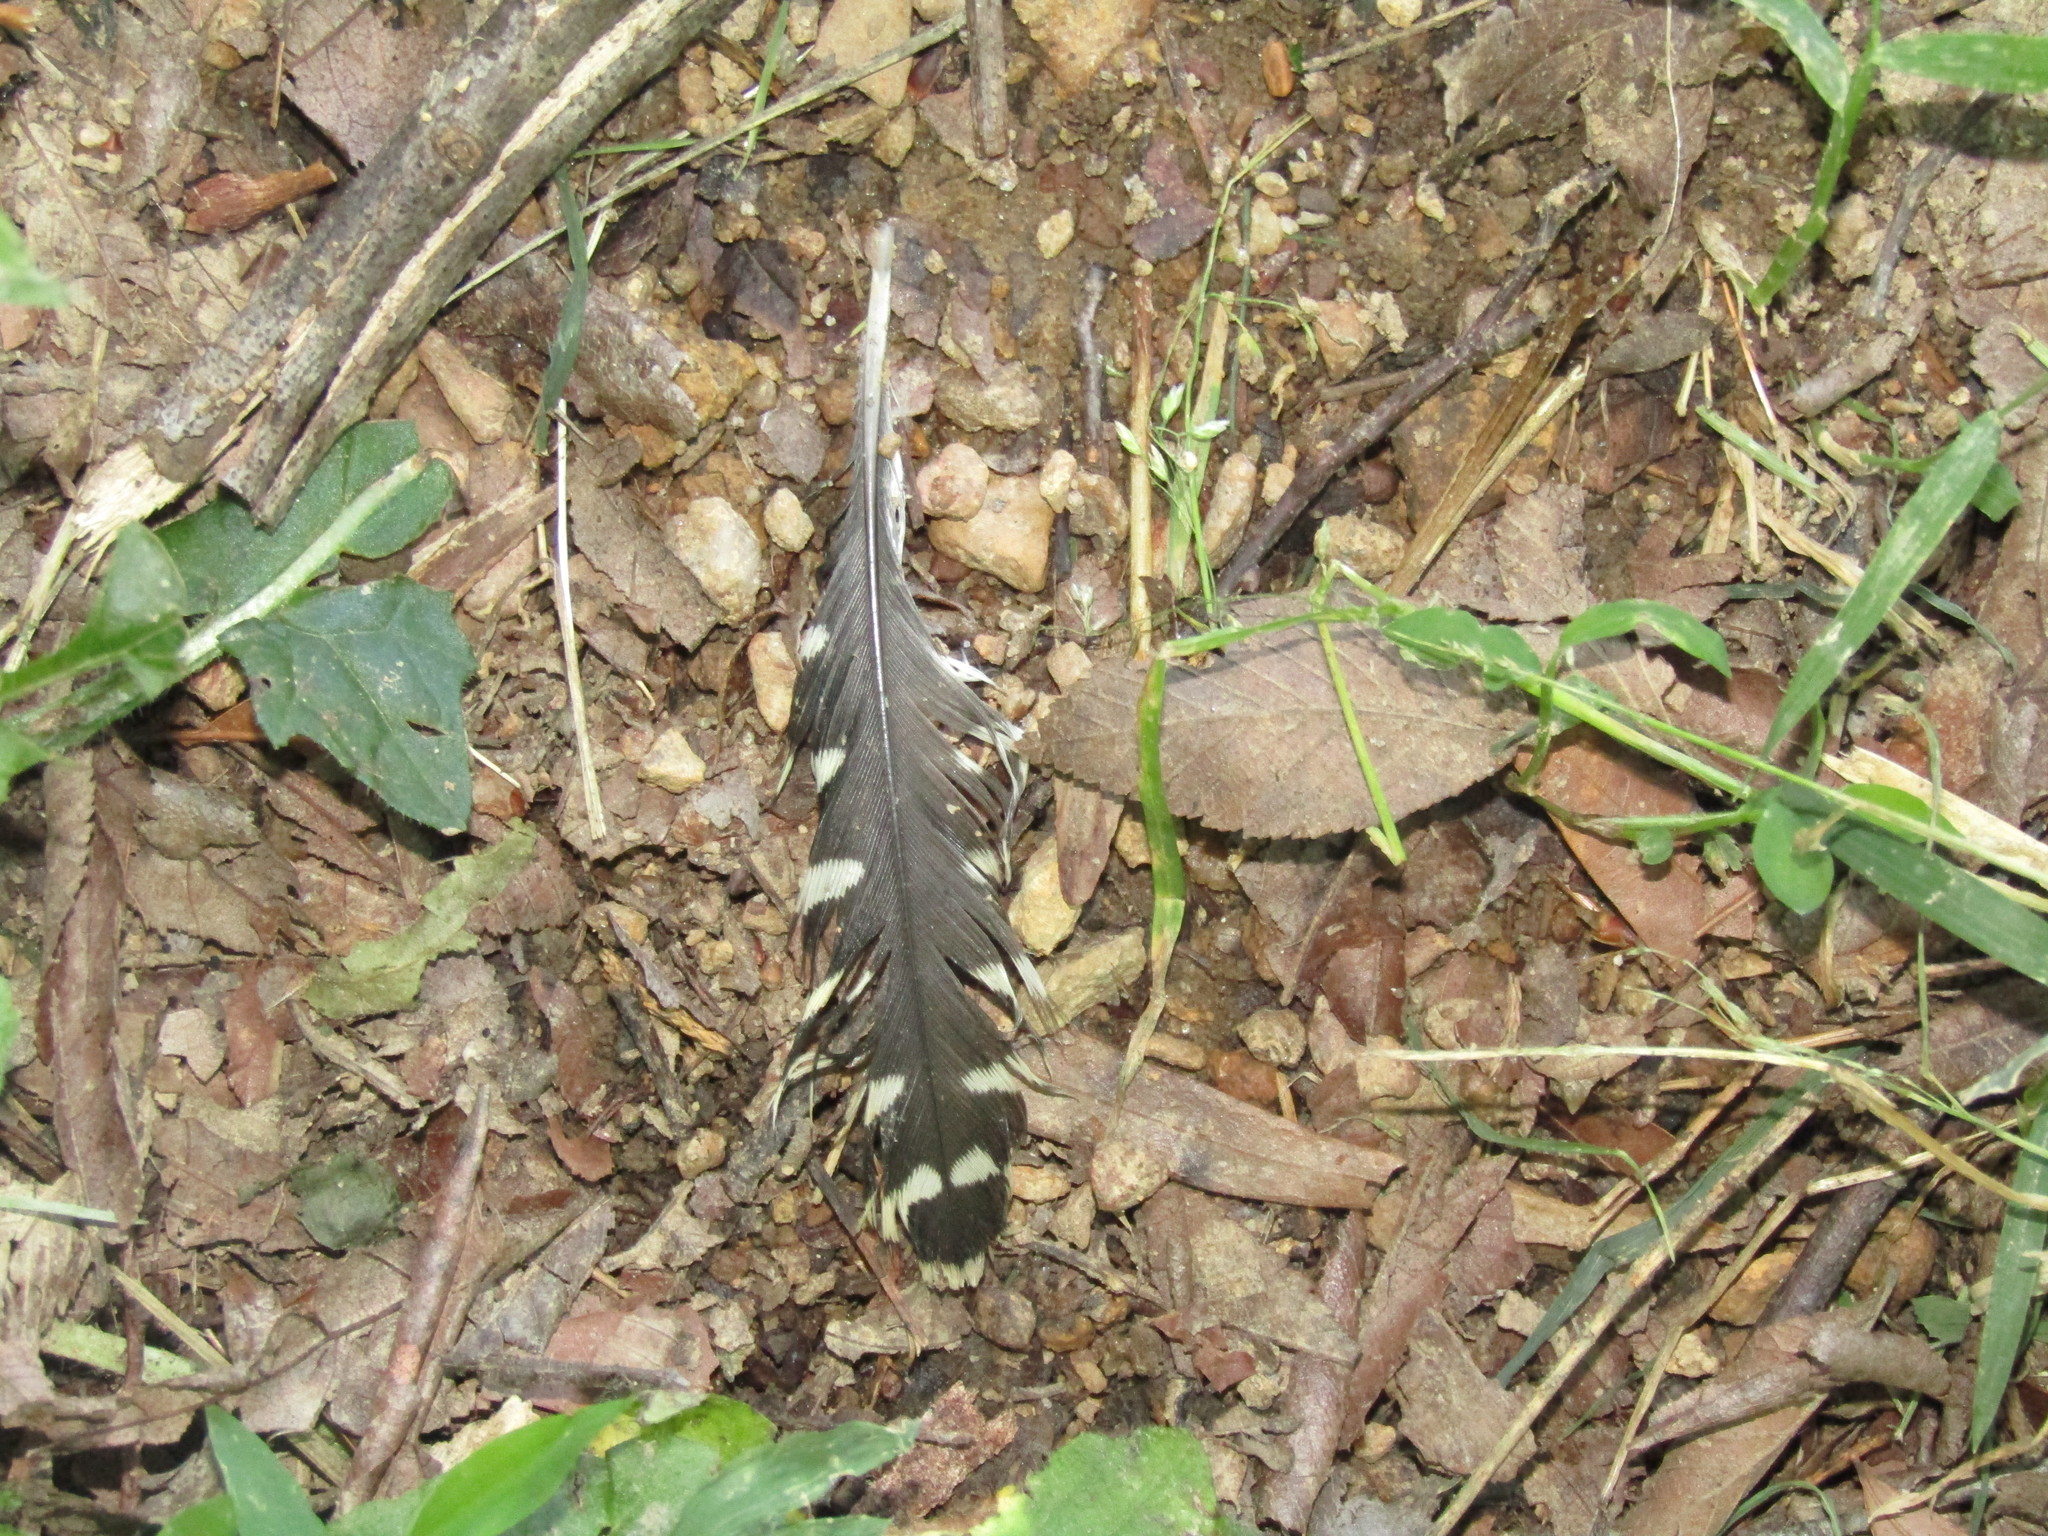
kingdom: Animalia
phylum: Chordata
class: Aves
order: Piciformes
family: Picidae
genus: Melanerpes
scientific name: Melanerpes carolinus
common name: Red-bellied woodpecker
